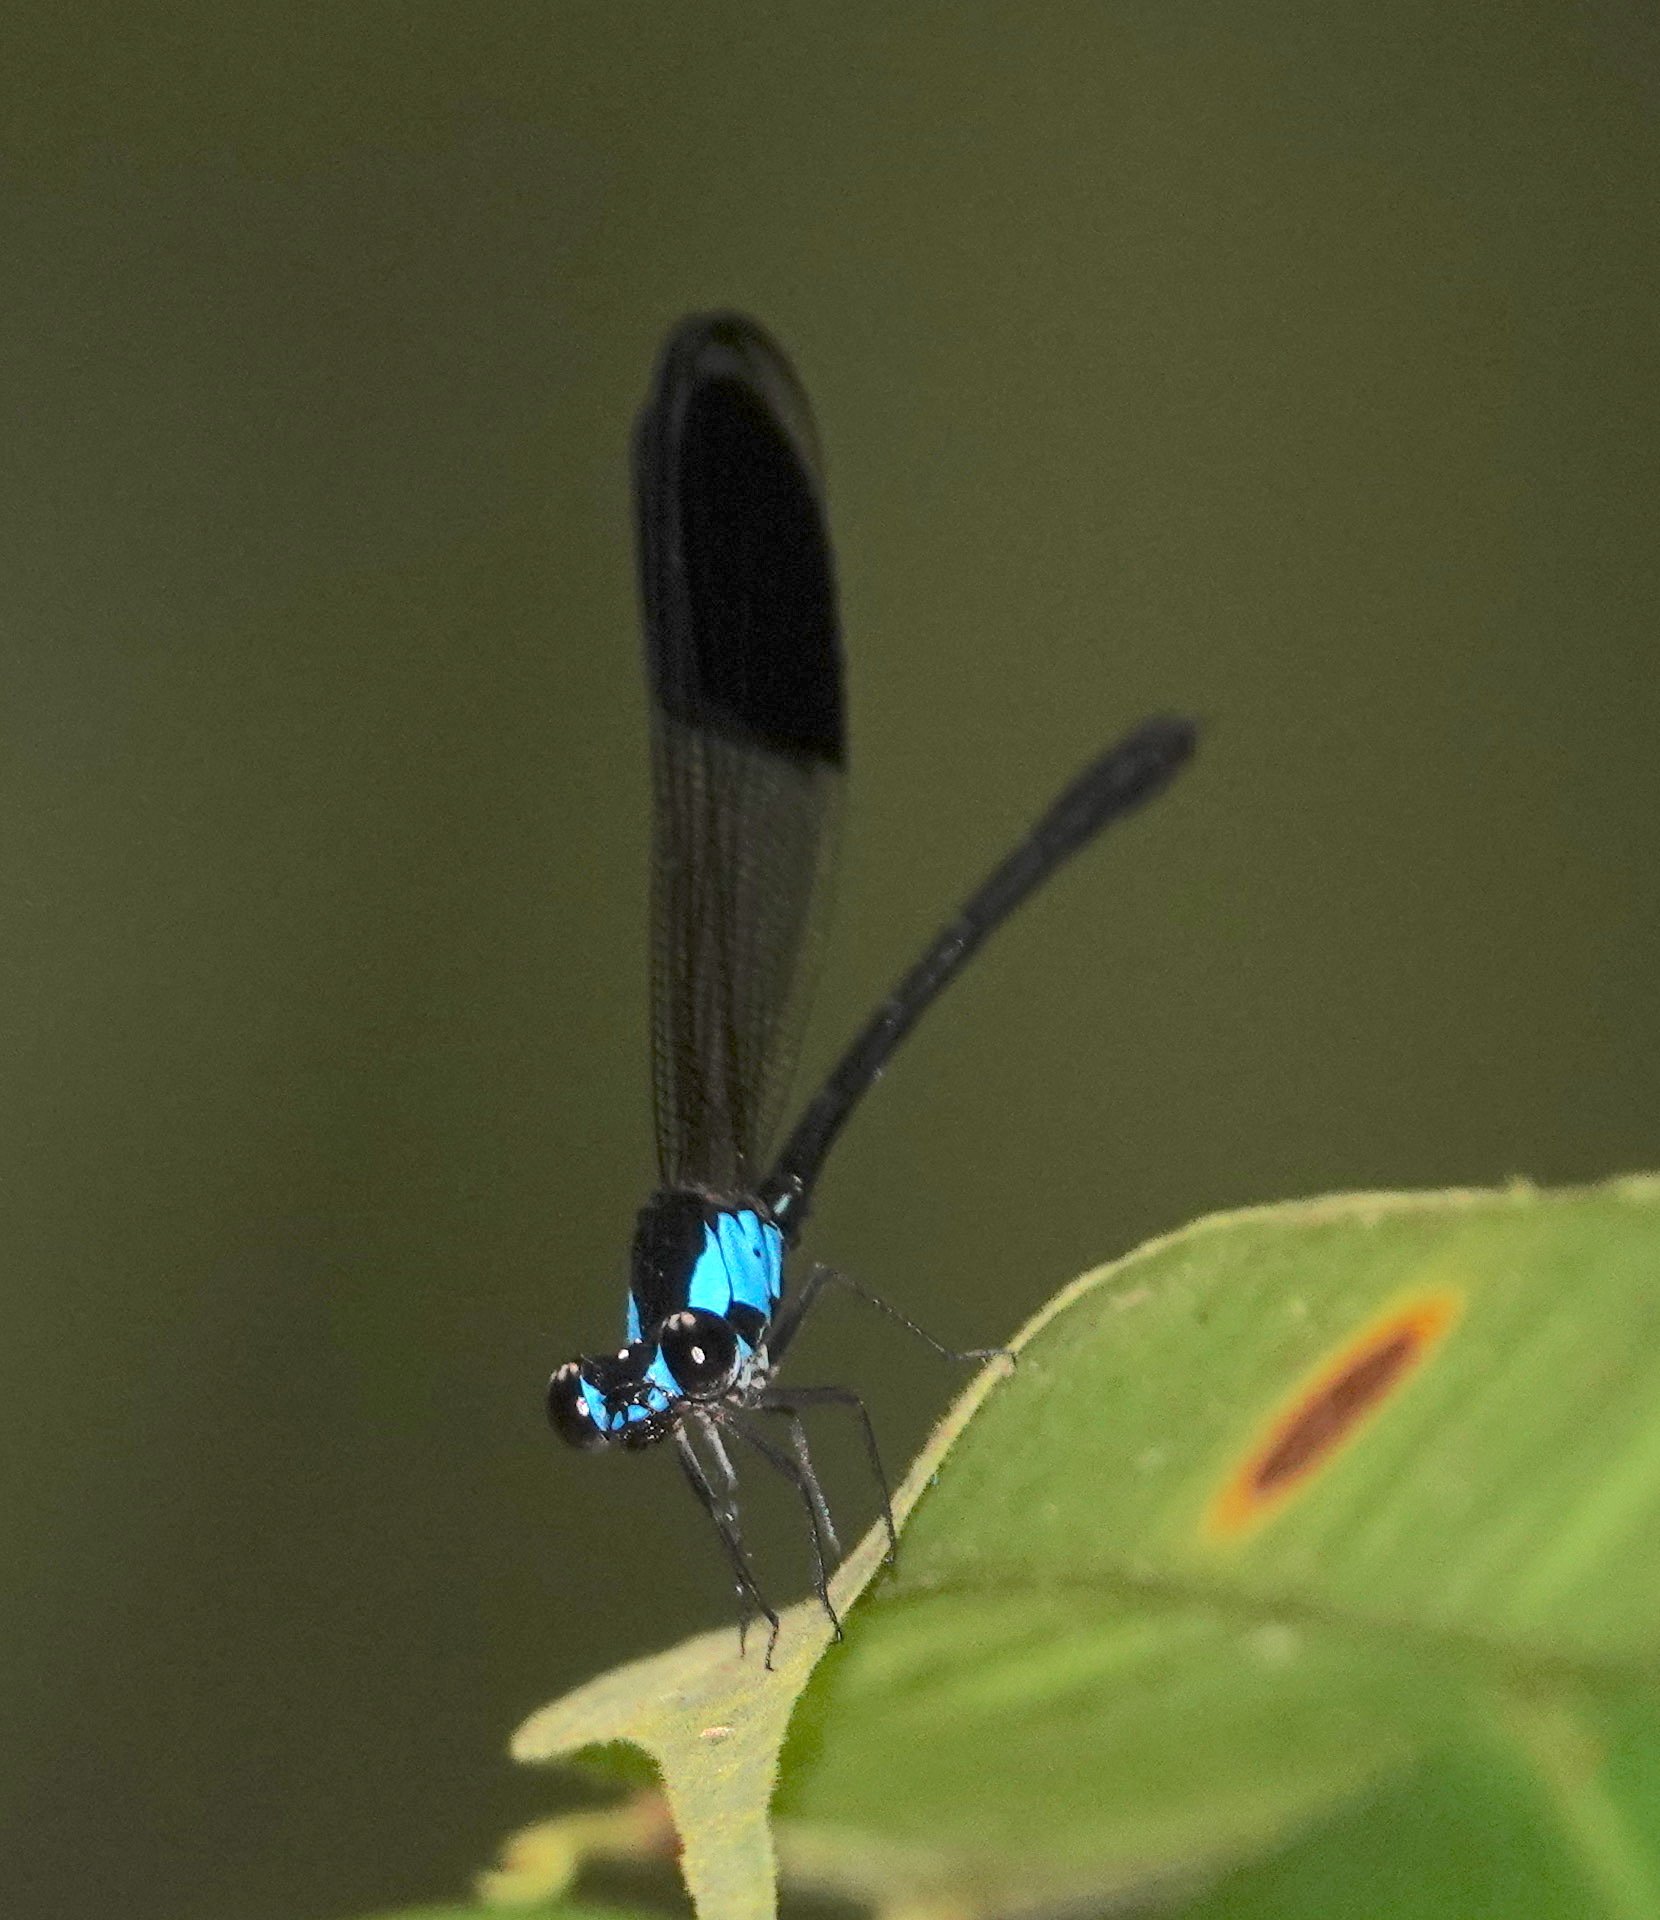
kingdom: Animalia
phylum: Arthropoda
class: Insecta
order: Odonata
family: Euphaeidae
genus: Euphaea
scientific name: Euphaea impar
